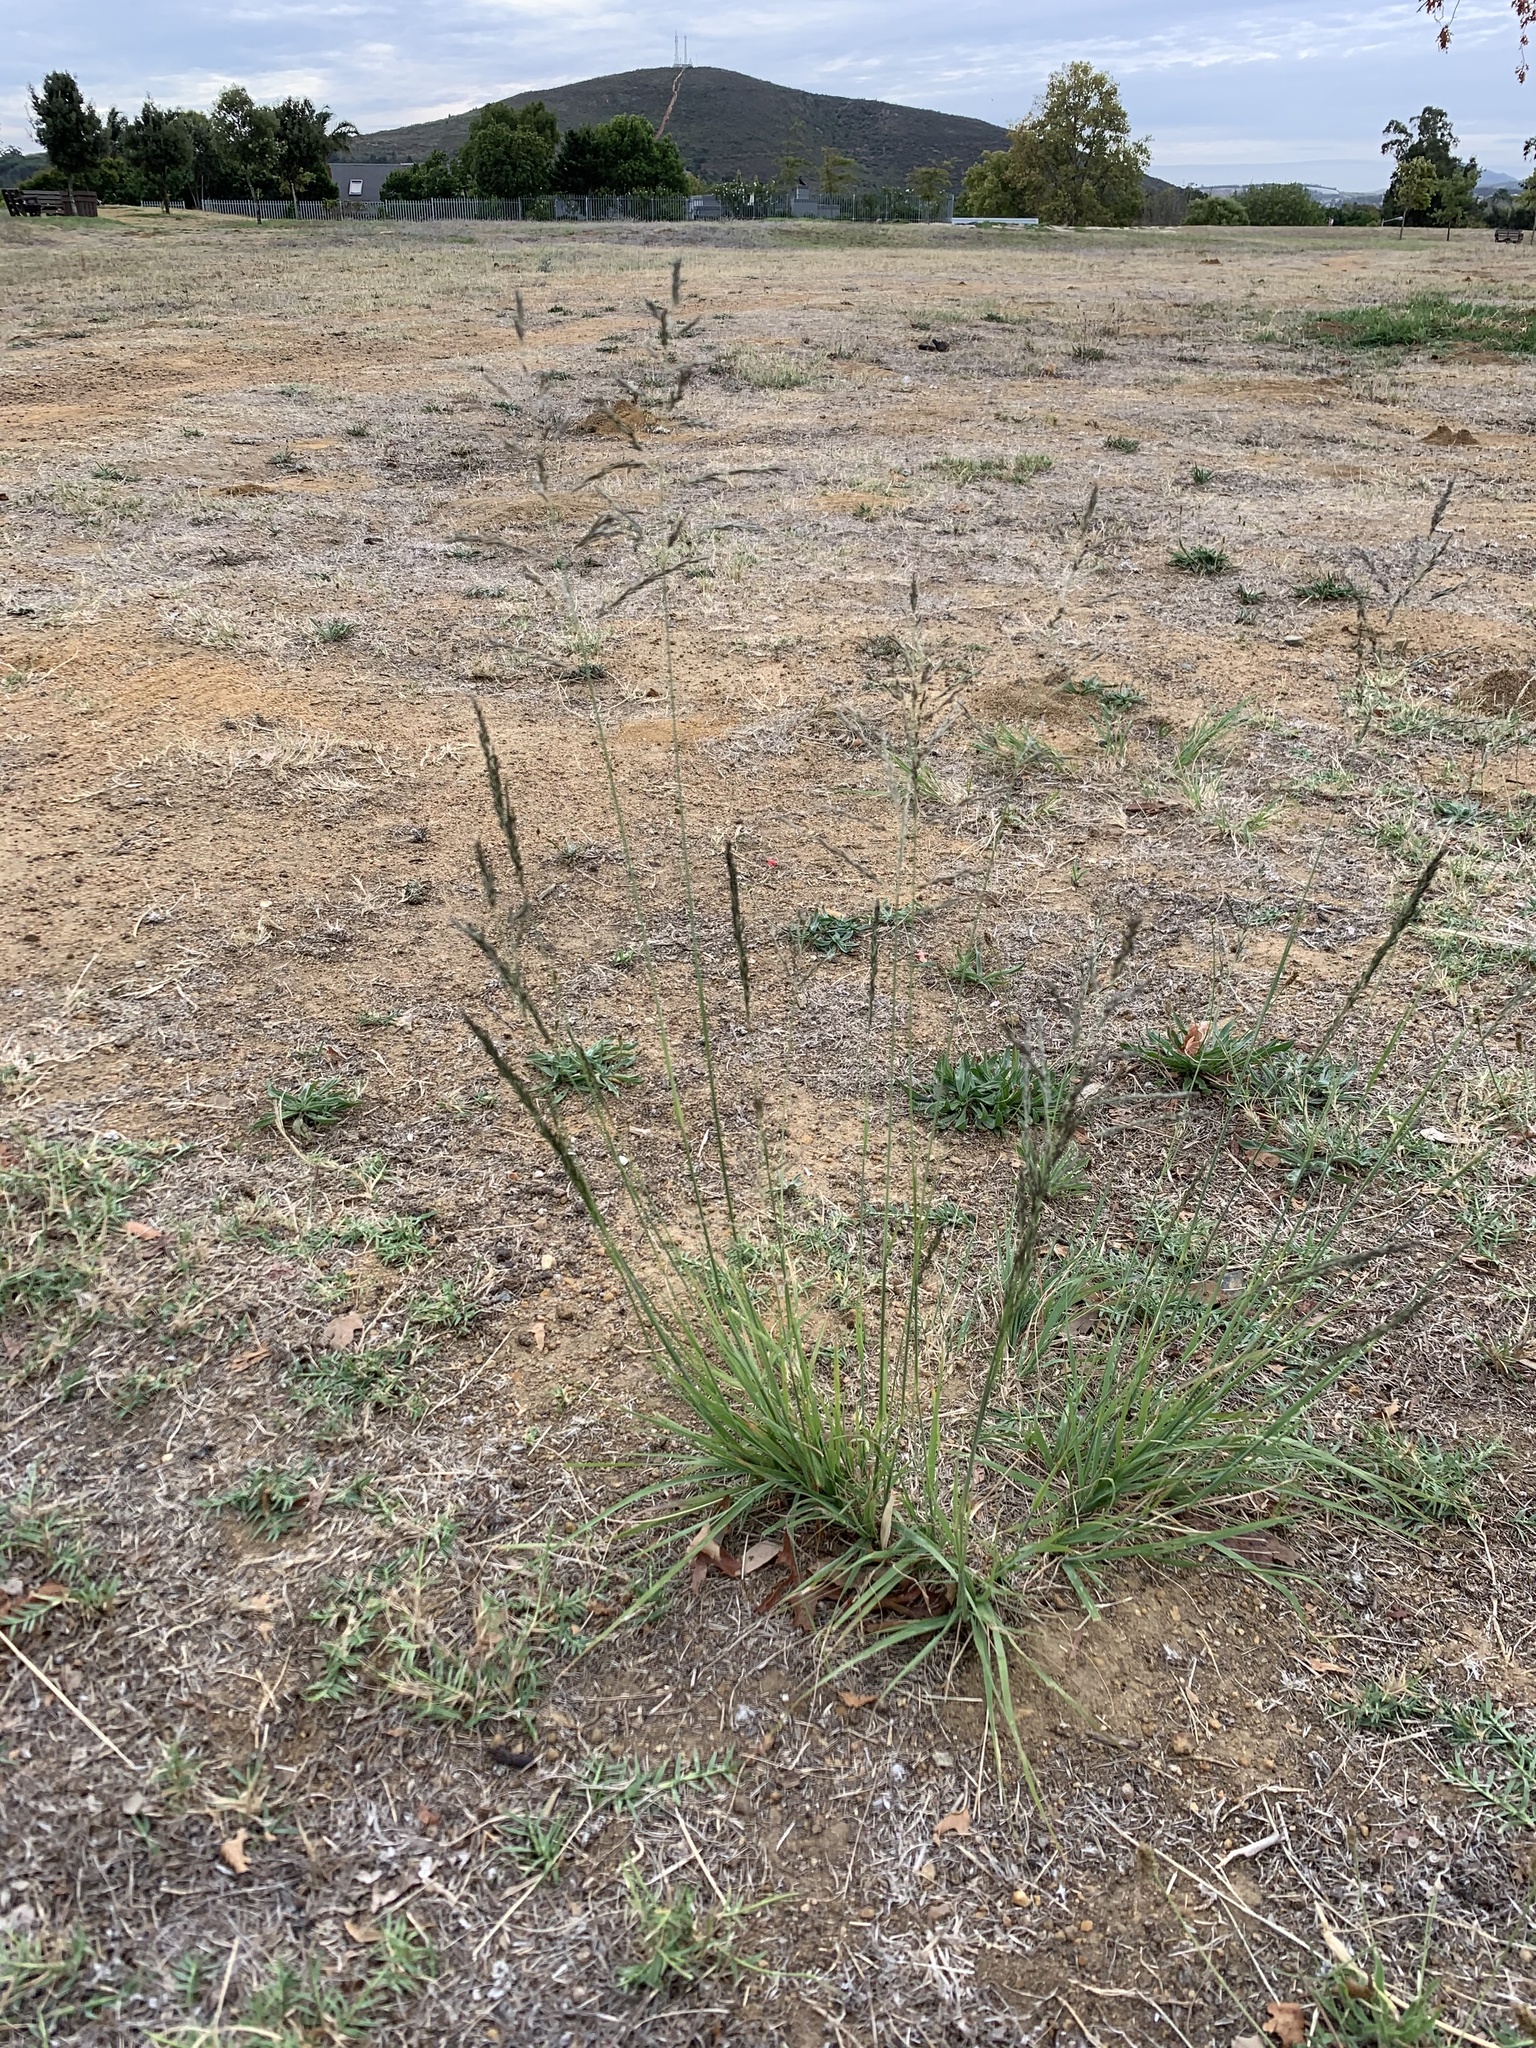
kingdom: Plantae
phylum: Tracheophyta
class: Liliopsida
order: Poales
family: Poaceae
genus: Eragrostis
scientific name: Eragrostis curvula
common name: African love-grass
